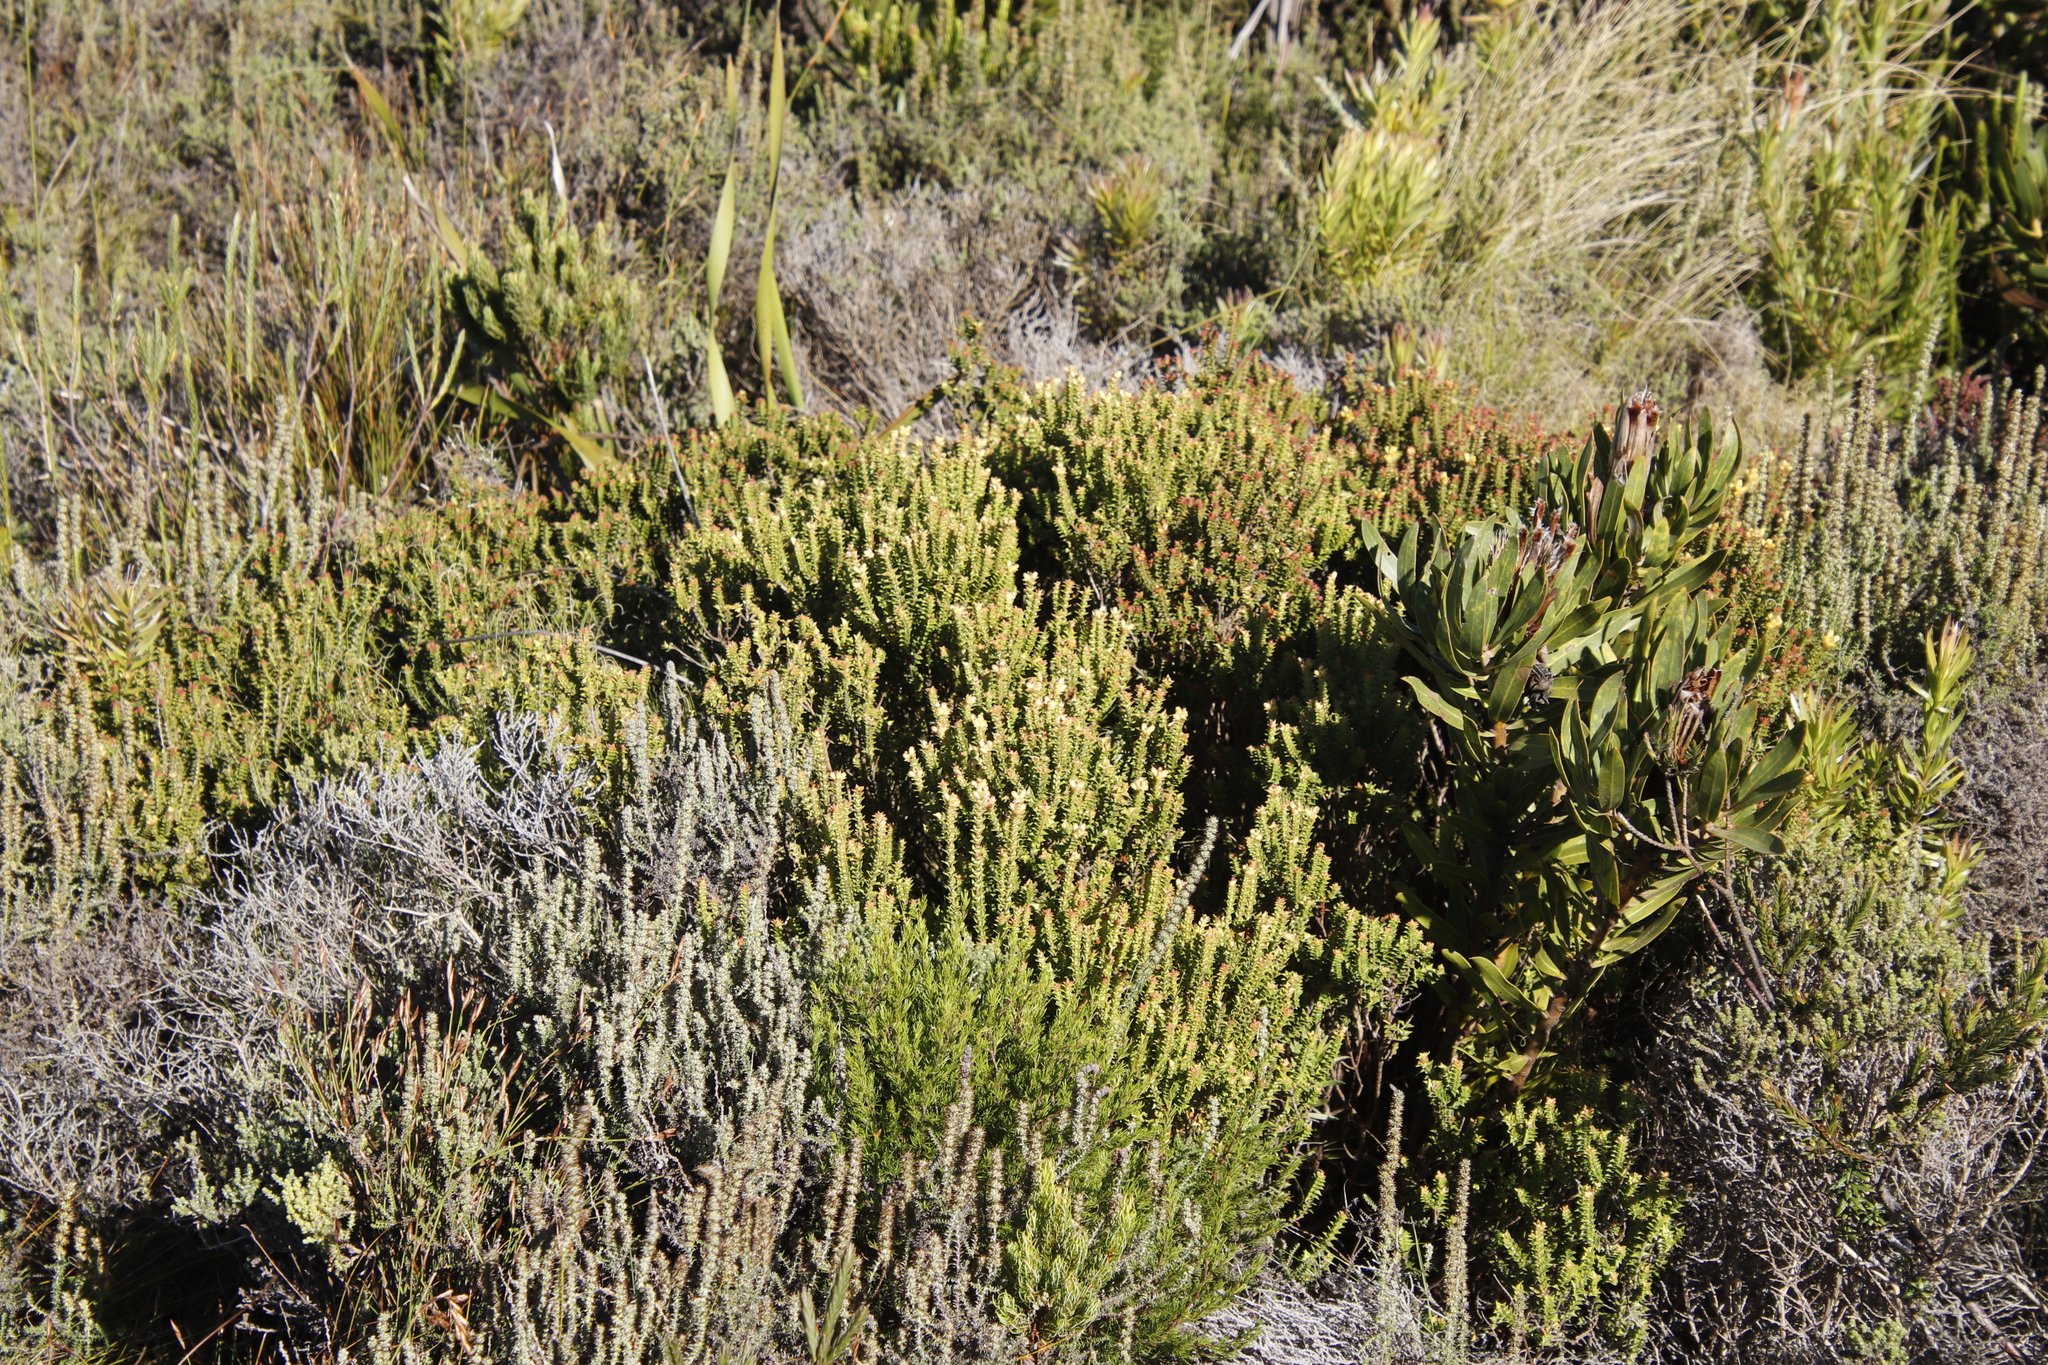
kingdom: Plantae
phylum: Tracheophyta
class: Magnoliopsida
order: Myrtales
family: Penaeaceae
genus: Penaea
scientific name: Penaea mucronata
